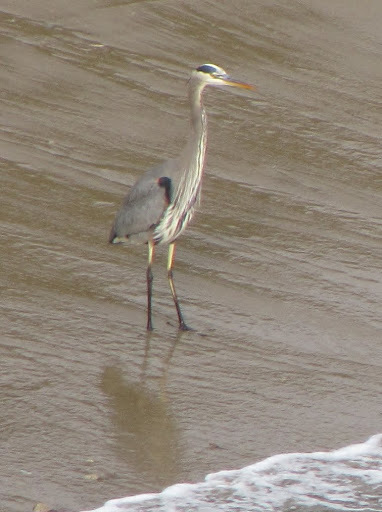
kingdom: Animalia
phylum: Chordata
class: Aves
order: Pelecaniformes
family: Ardeidae
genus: Ardea
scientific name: Ardea herodias
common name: Great blue heron
